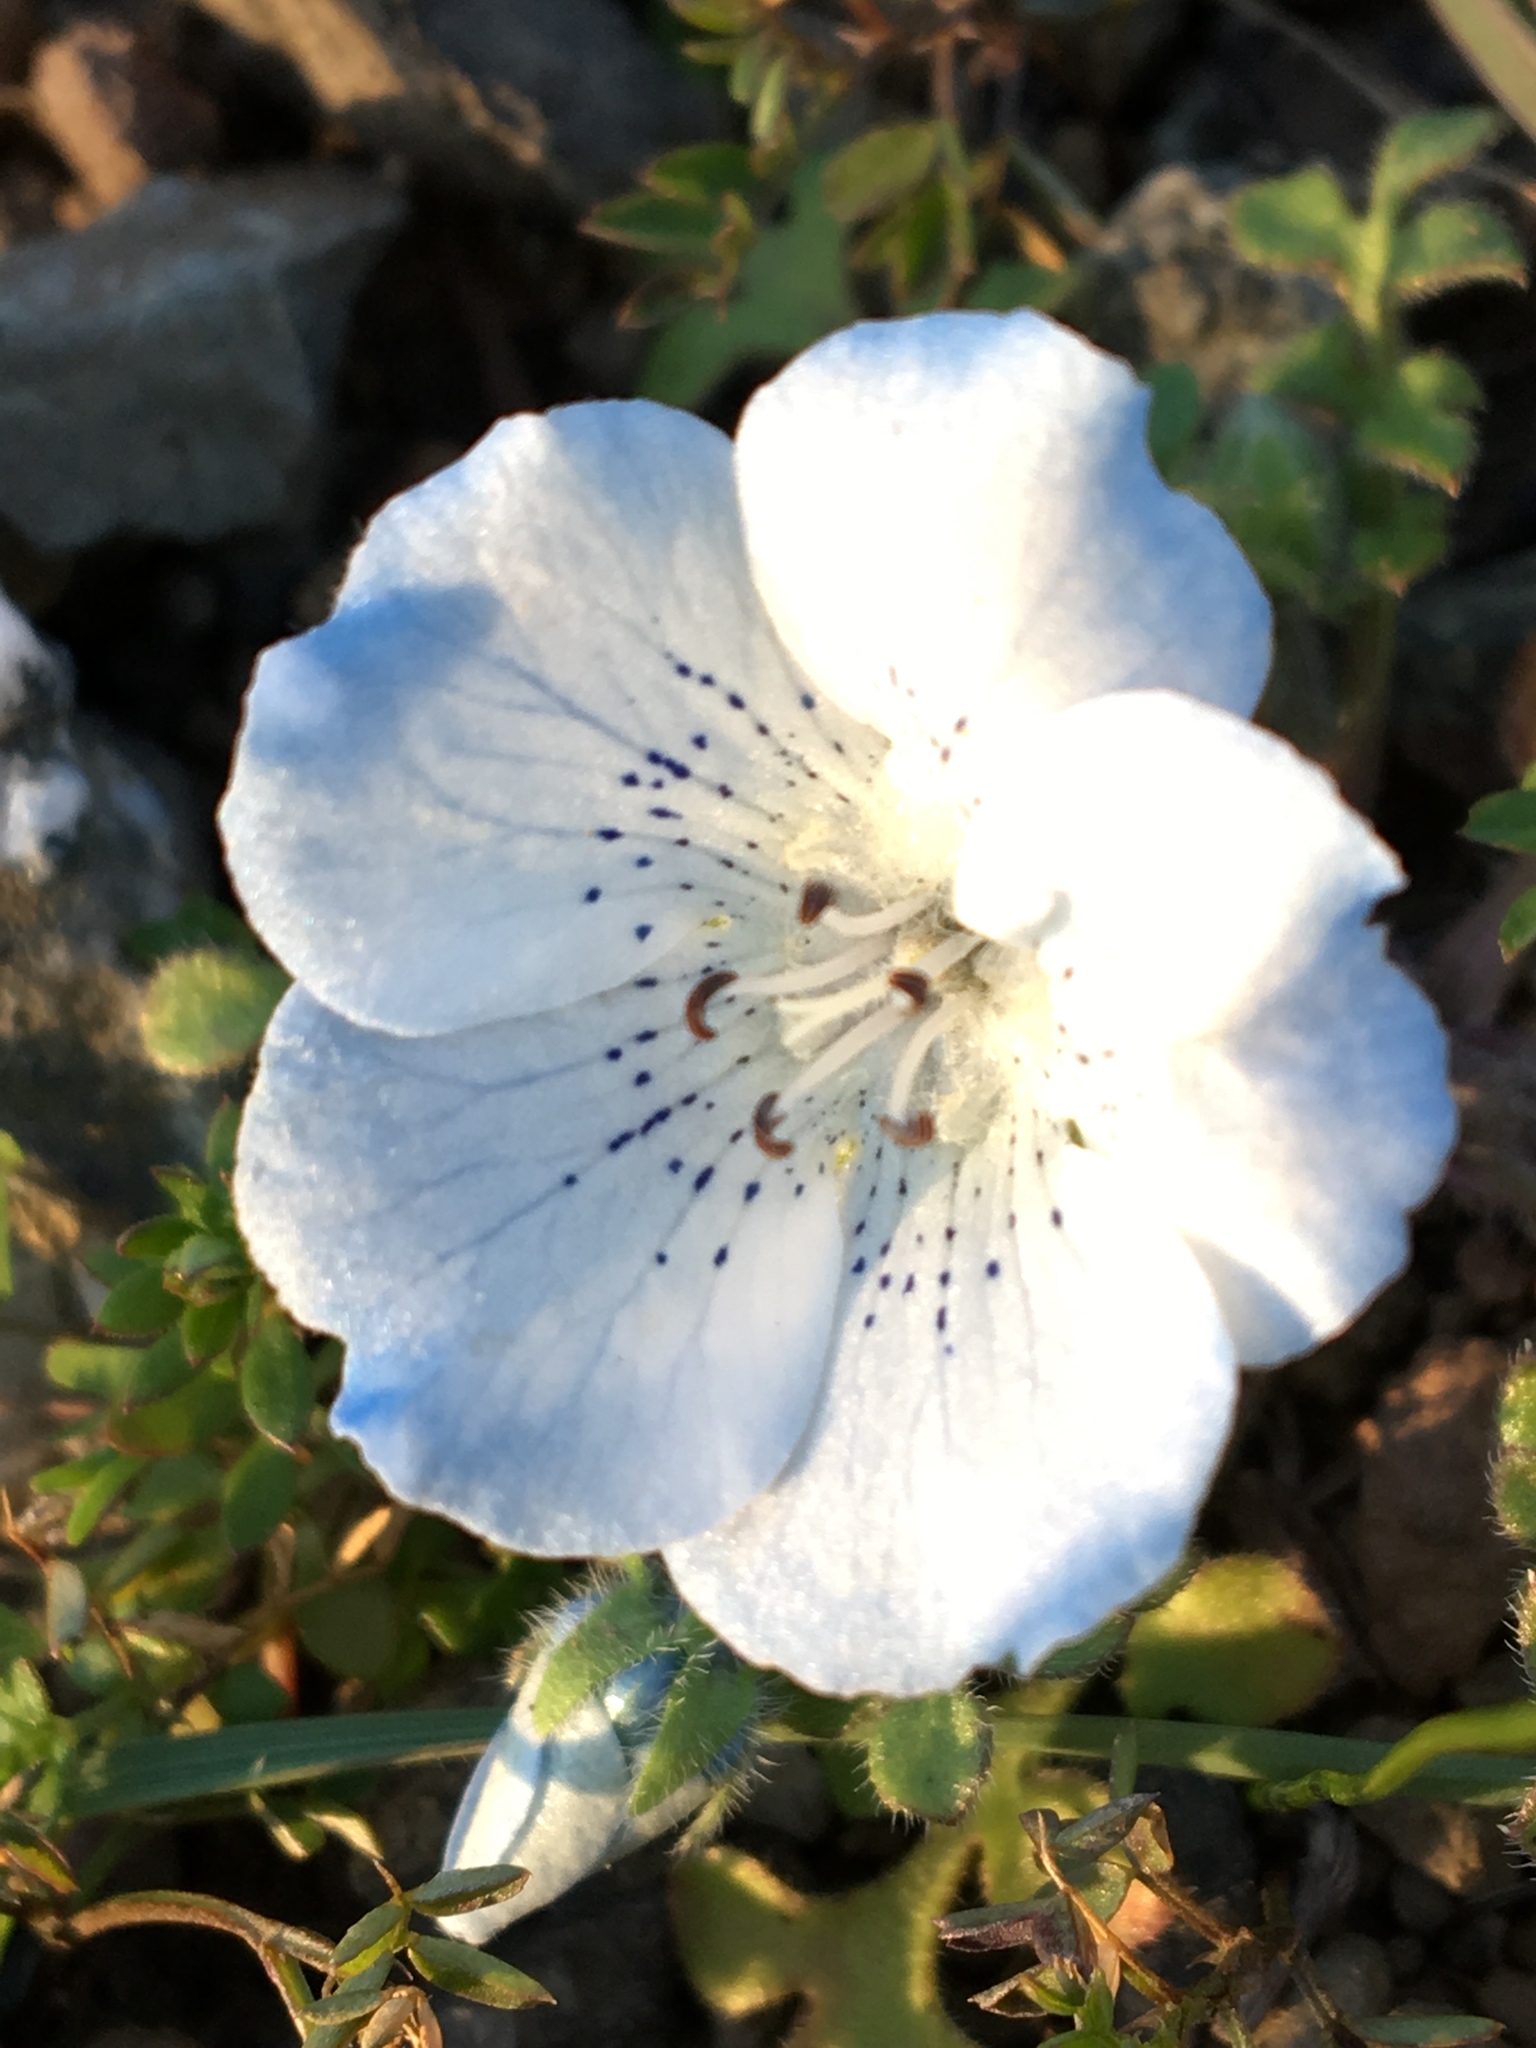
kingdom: Plantae
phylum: Tracheophyta
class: Magnoliopsida
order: Boraginales
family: Hydrophyllaceae
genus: Nemophila
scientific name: Nemophila menziesii
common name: Baby's-blue-eyes
